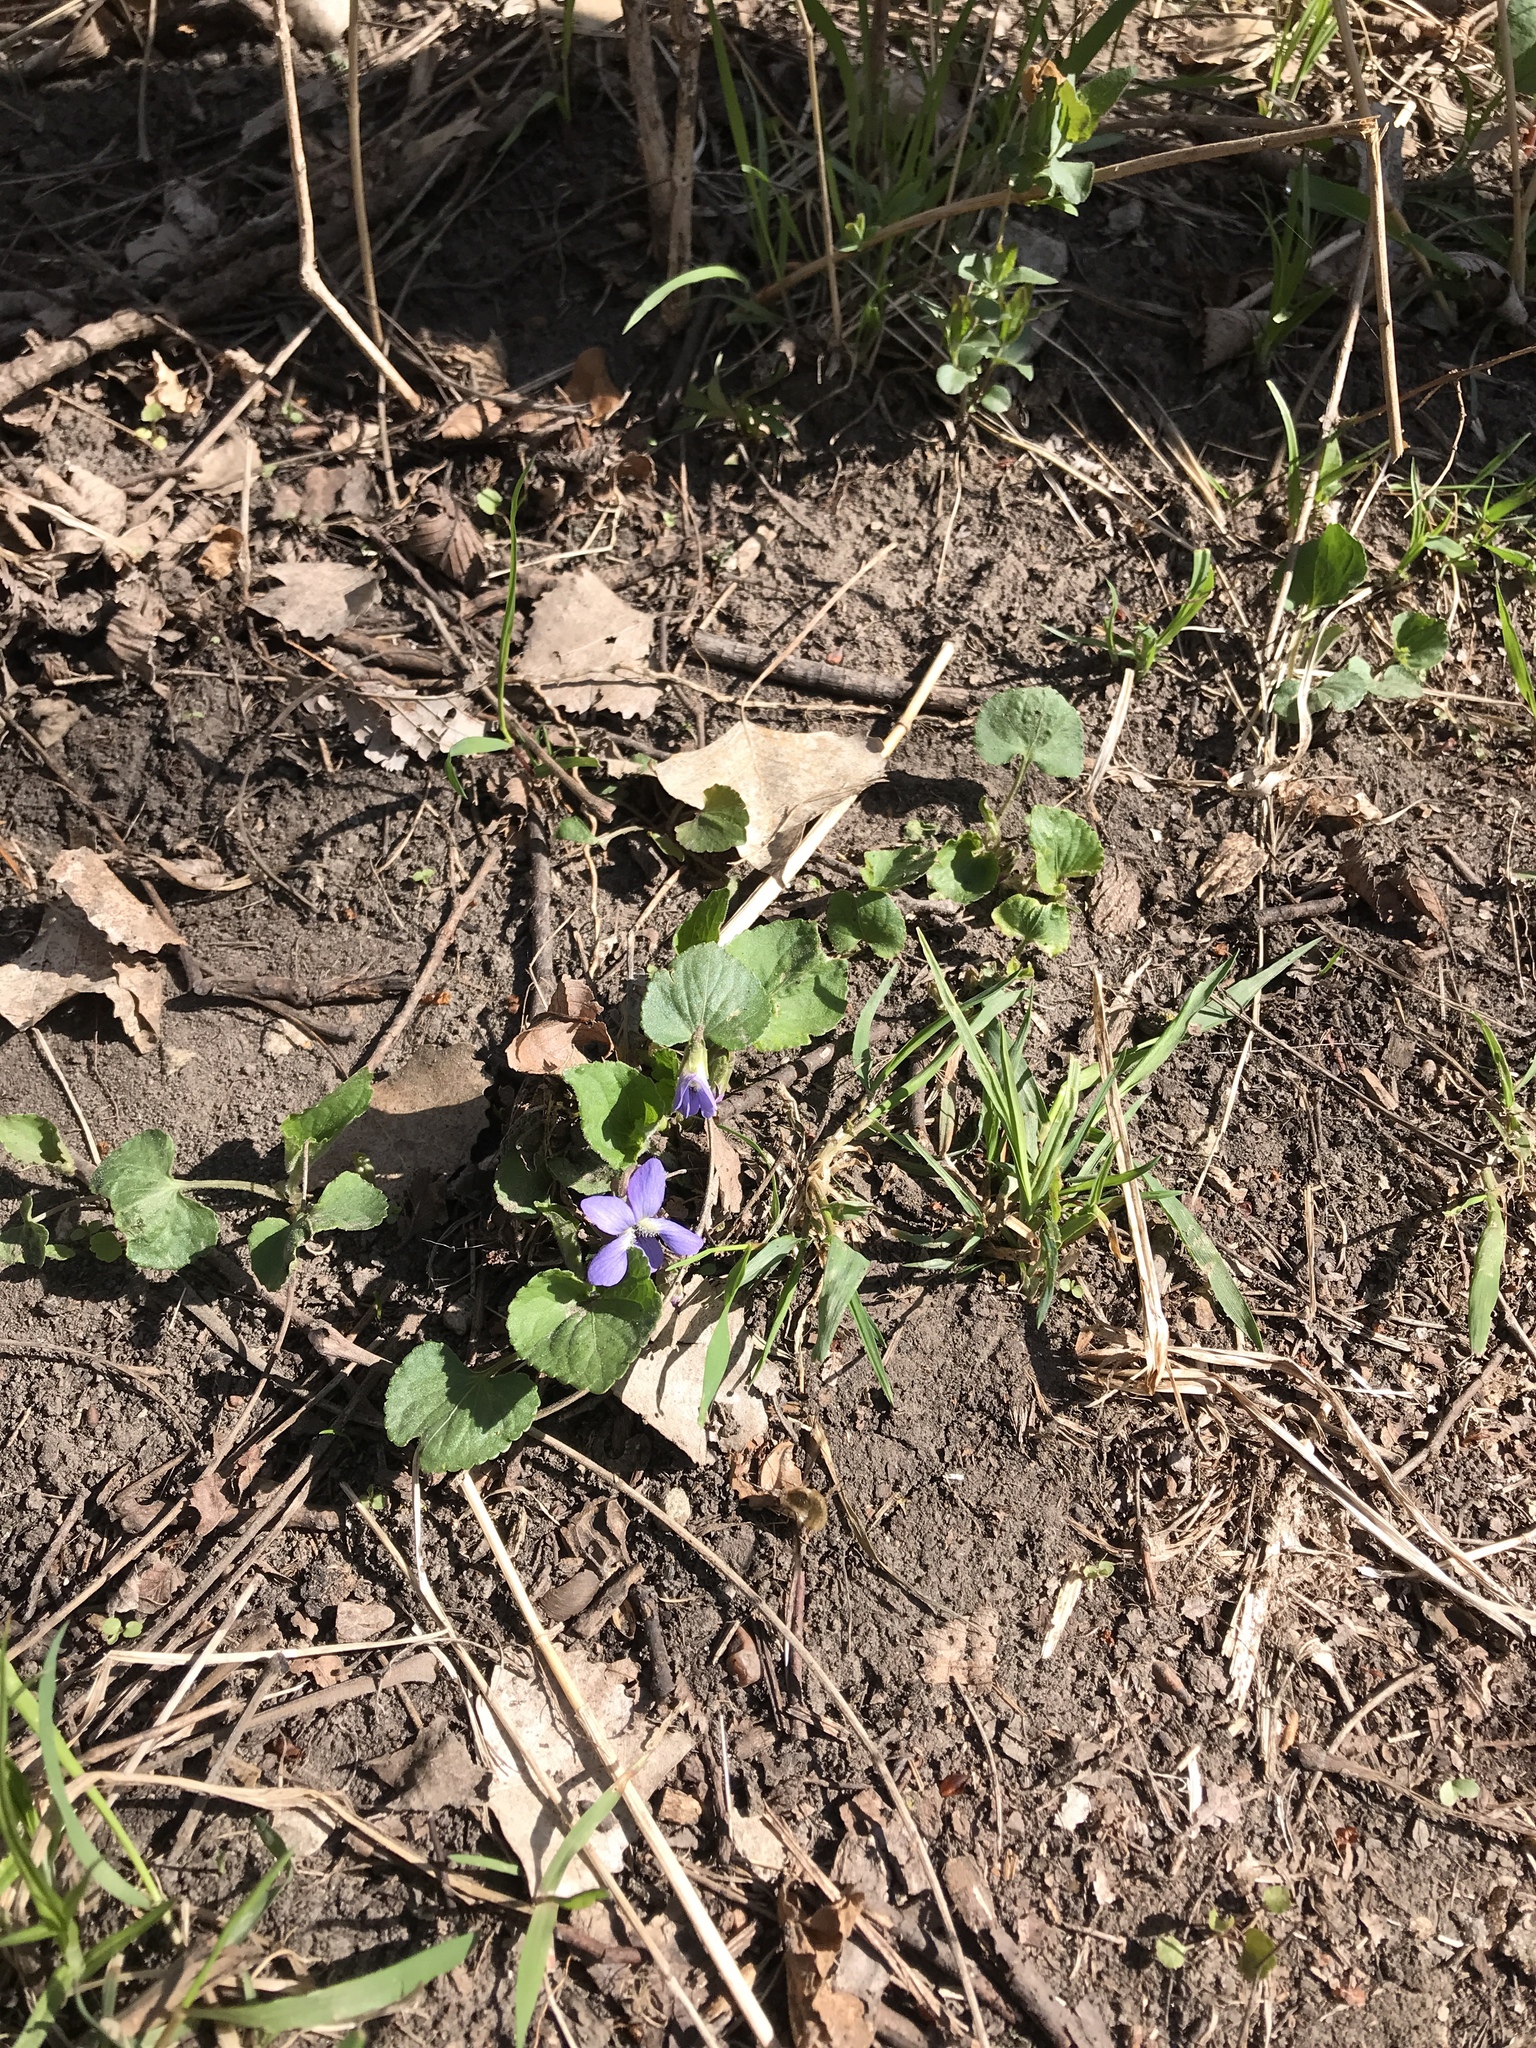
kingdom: Plantae
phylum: Tracheophyta
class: Magnoliopsida
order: Malpighiales
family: Violaceae
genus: Viola
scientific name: Viola sororia
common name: Dooryard violet
